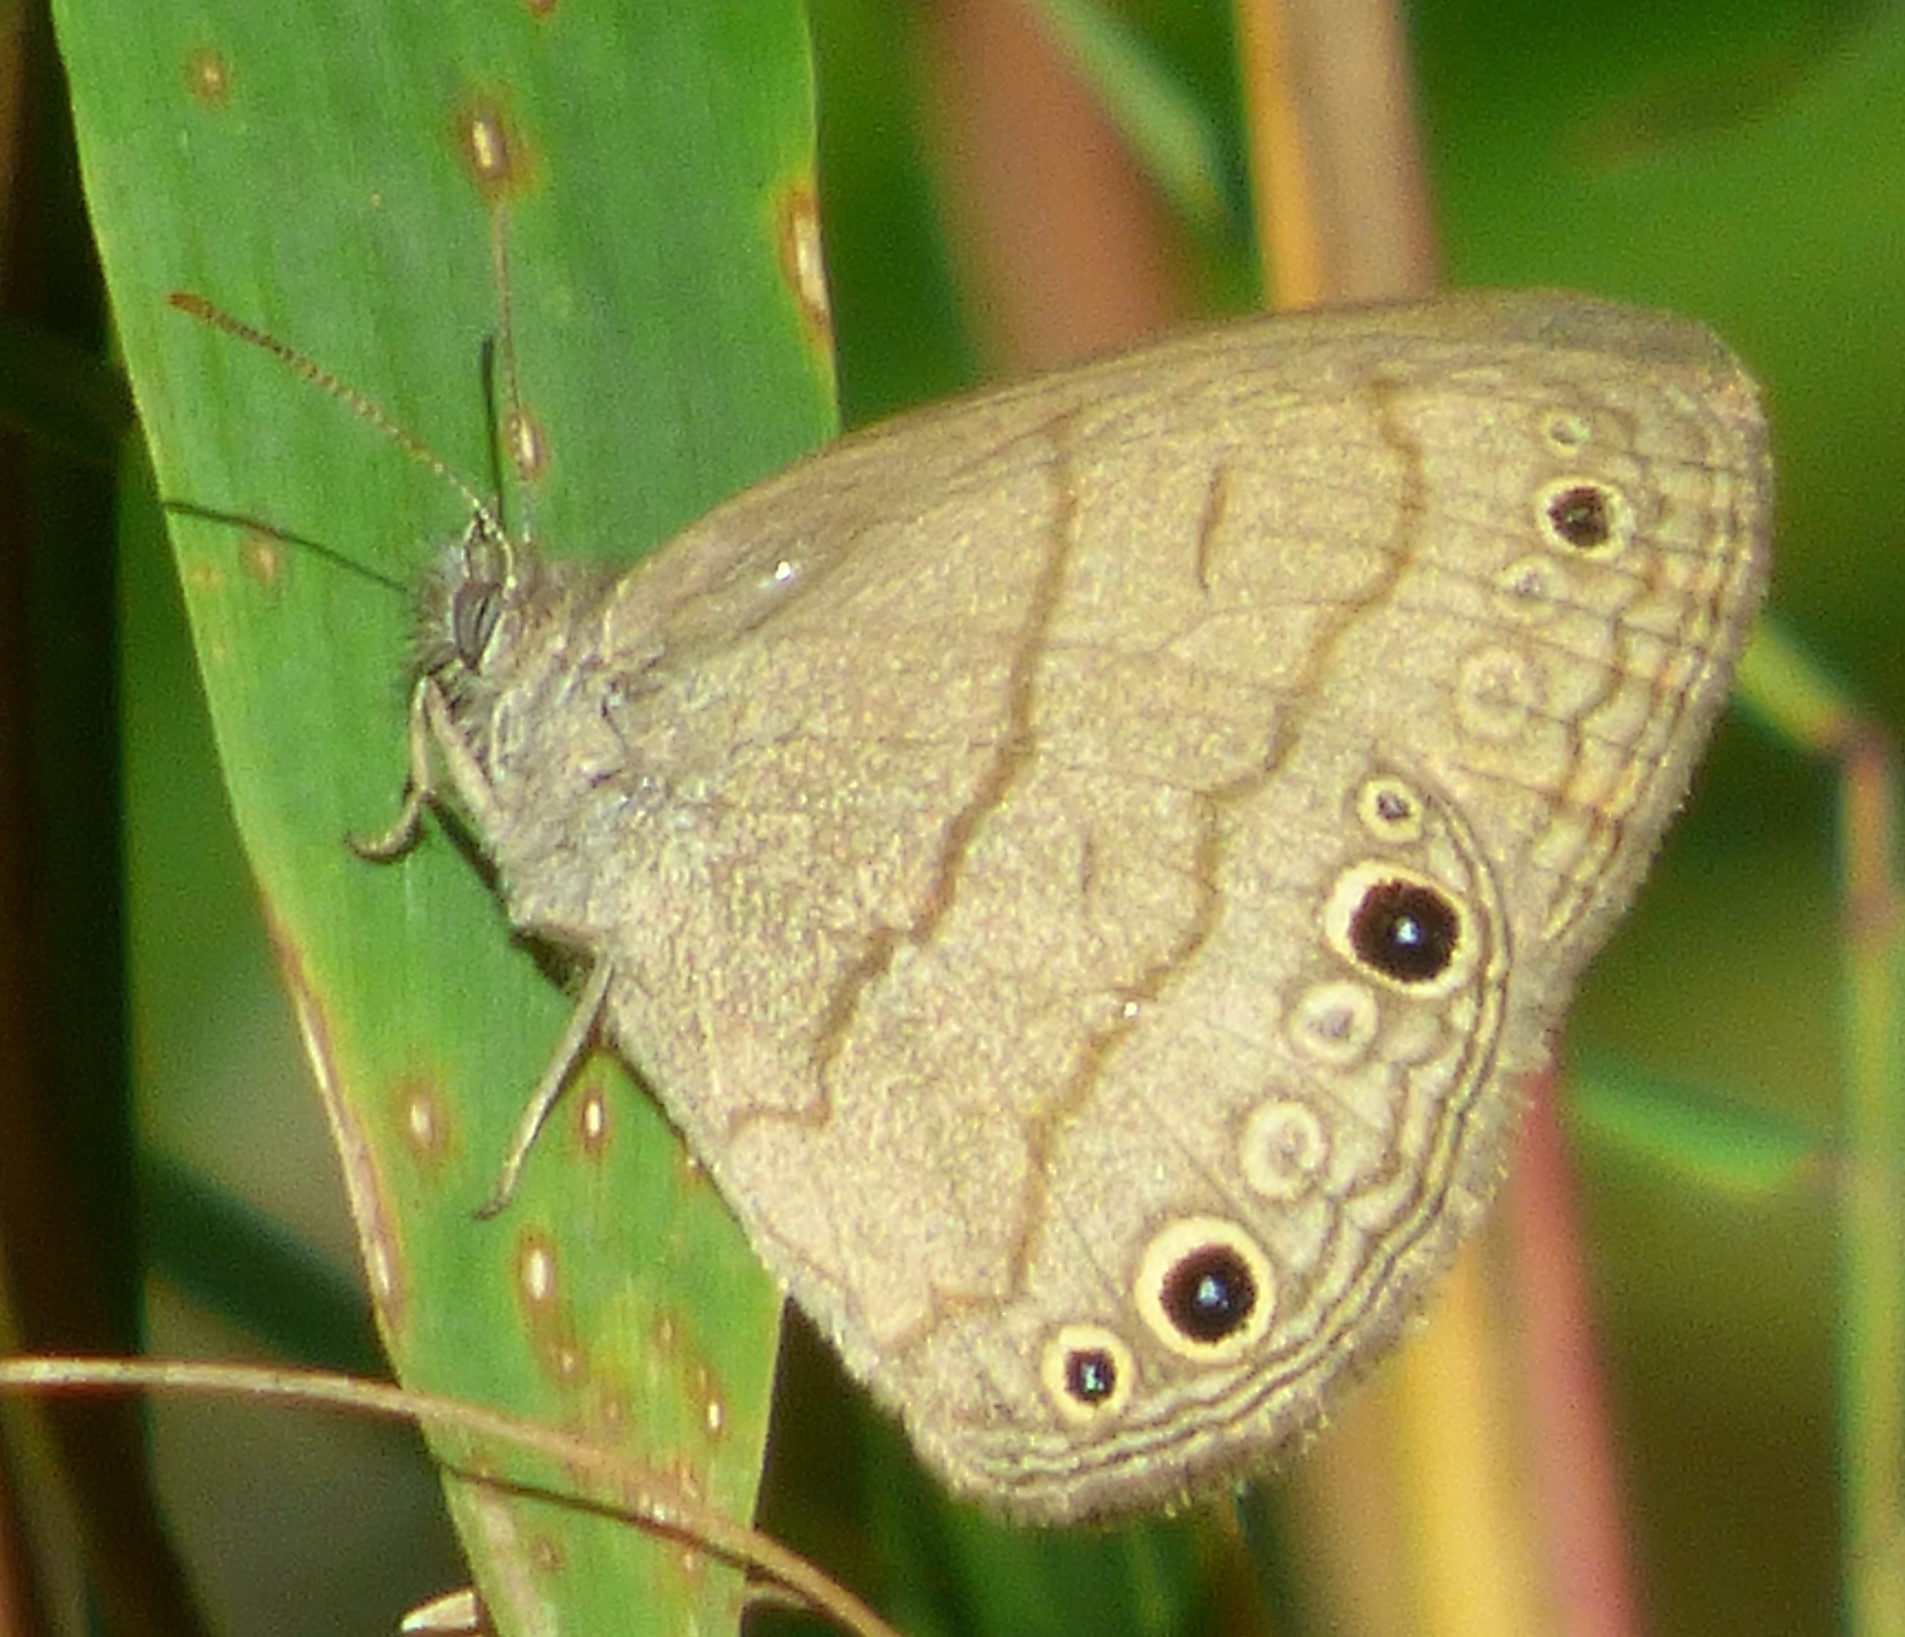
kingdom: Animalia
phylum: Arthropoda
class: Insecta
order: Lepidoptera
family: Nymphalidae
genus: Hermeuptychia
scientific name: Hermeuptychia hermes
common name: Hermes satyr
